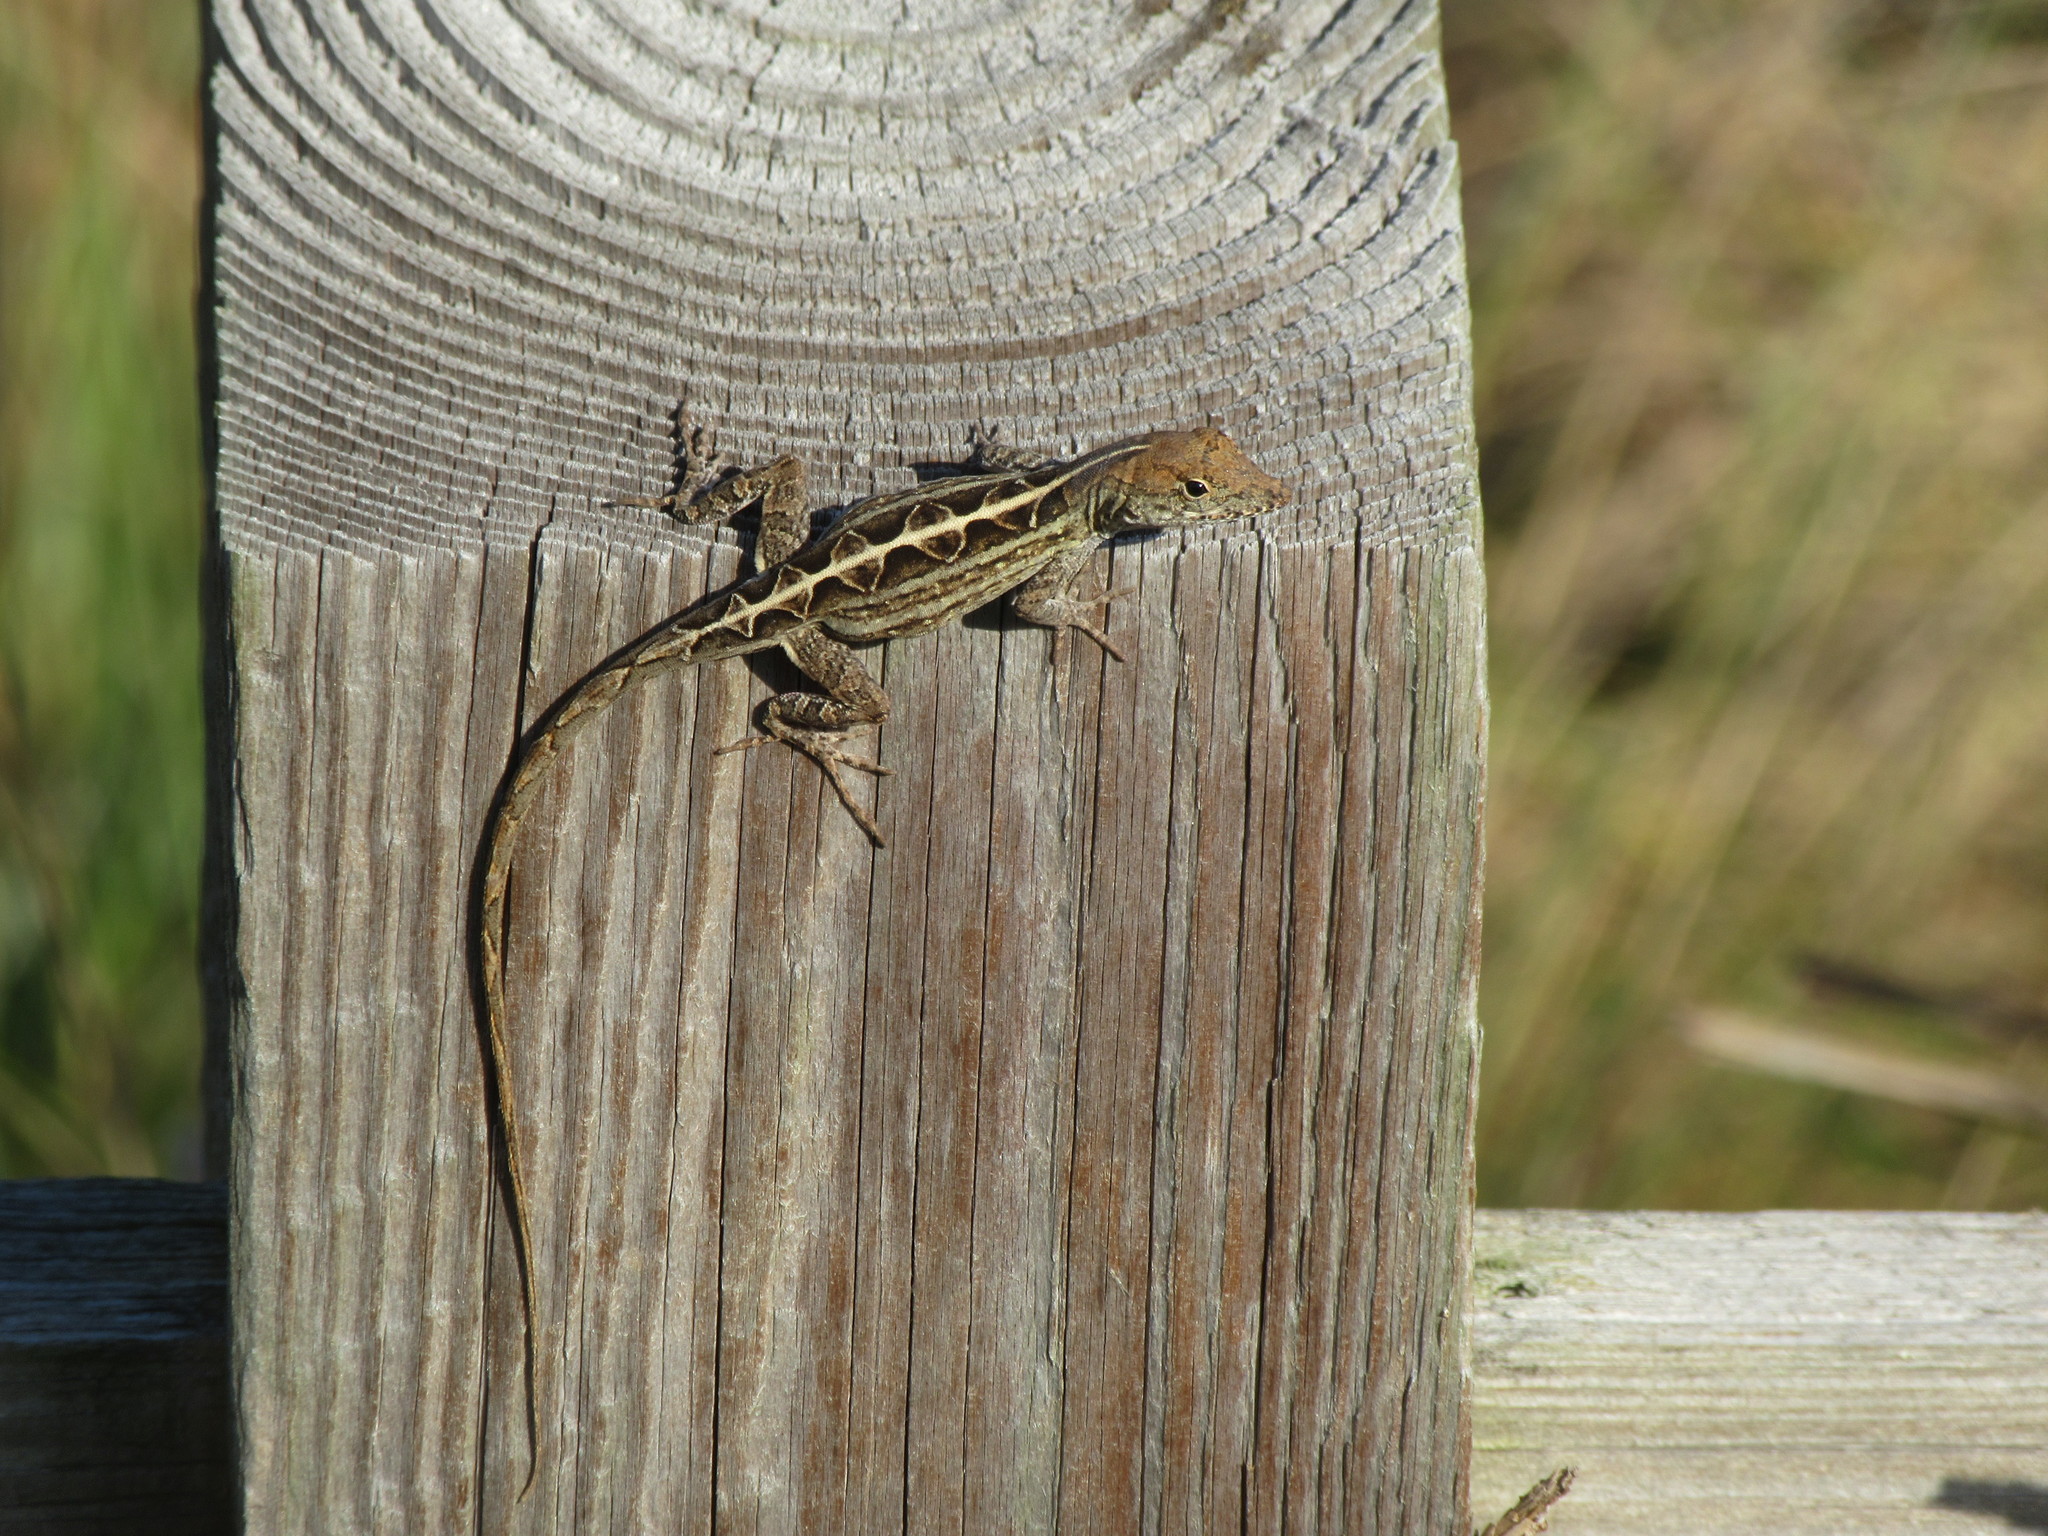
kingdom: Animalia
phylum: Chordata
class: Squamata
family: Dactyloidae
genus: Anolis
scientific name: Anolis sagrei
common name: Brown anole
